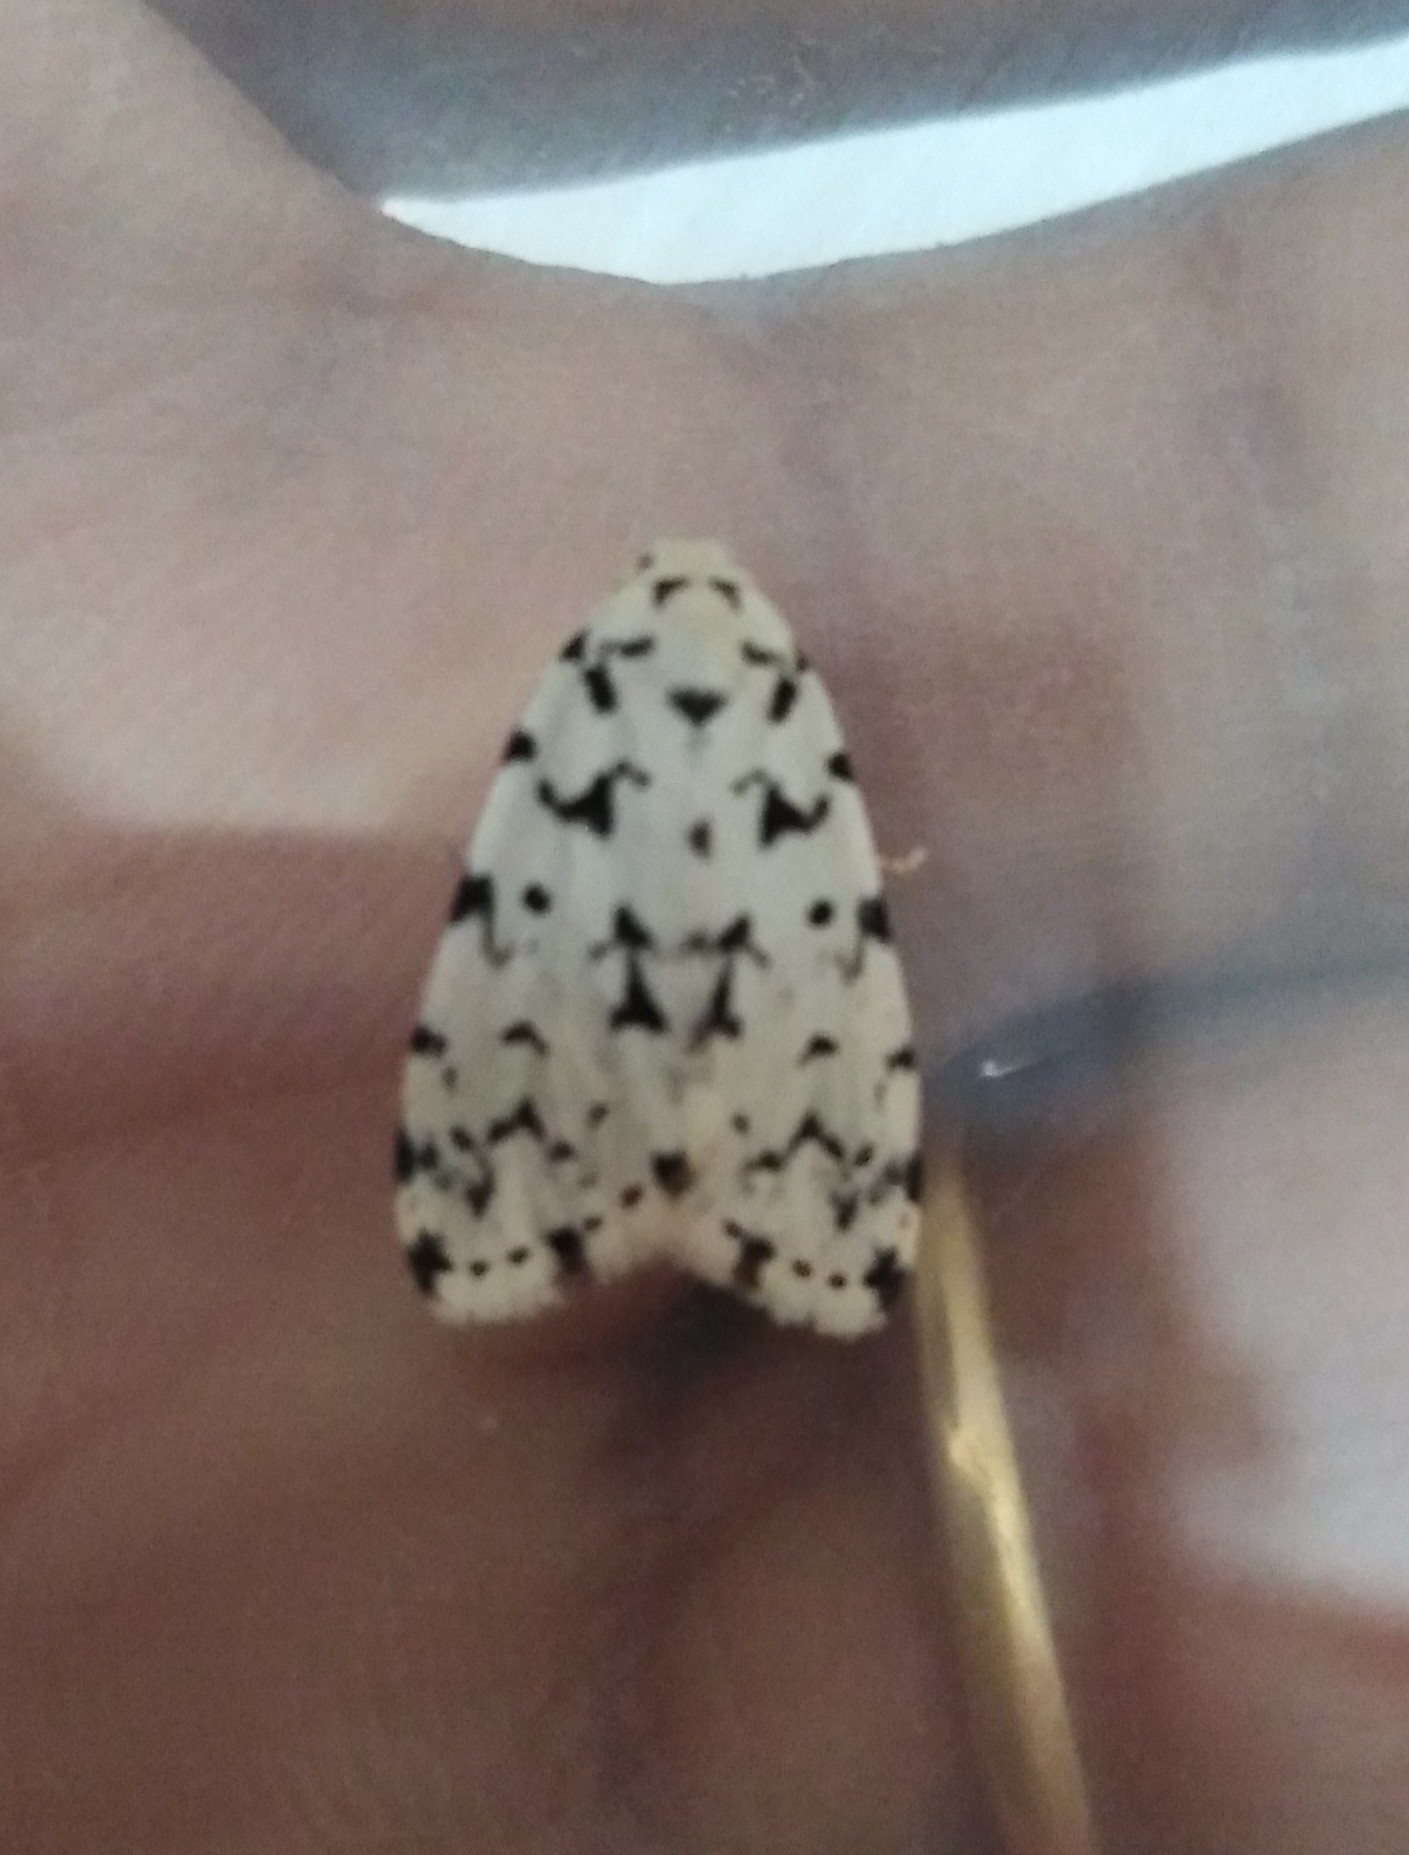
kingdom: Animalia
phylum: Arthropoda
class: Insecta
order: Lepidoptera
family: Erebidae
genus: Siccia
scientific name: Siccia taprobanis
